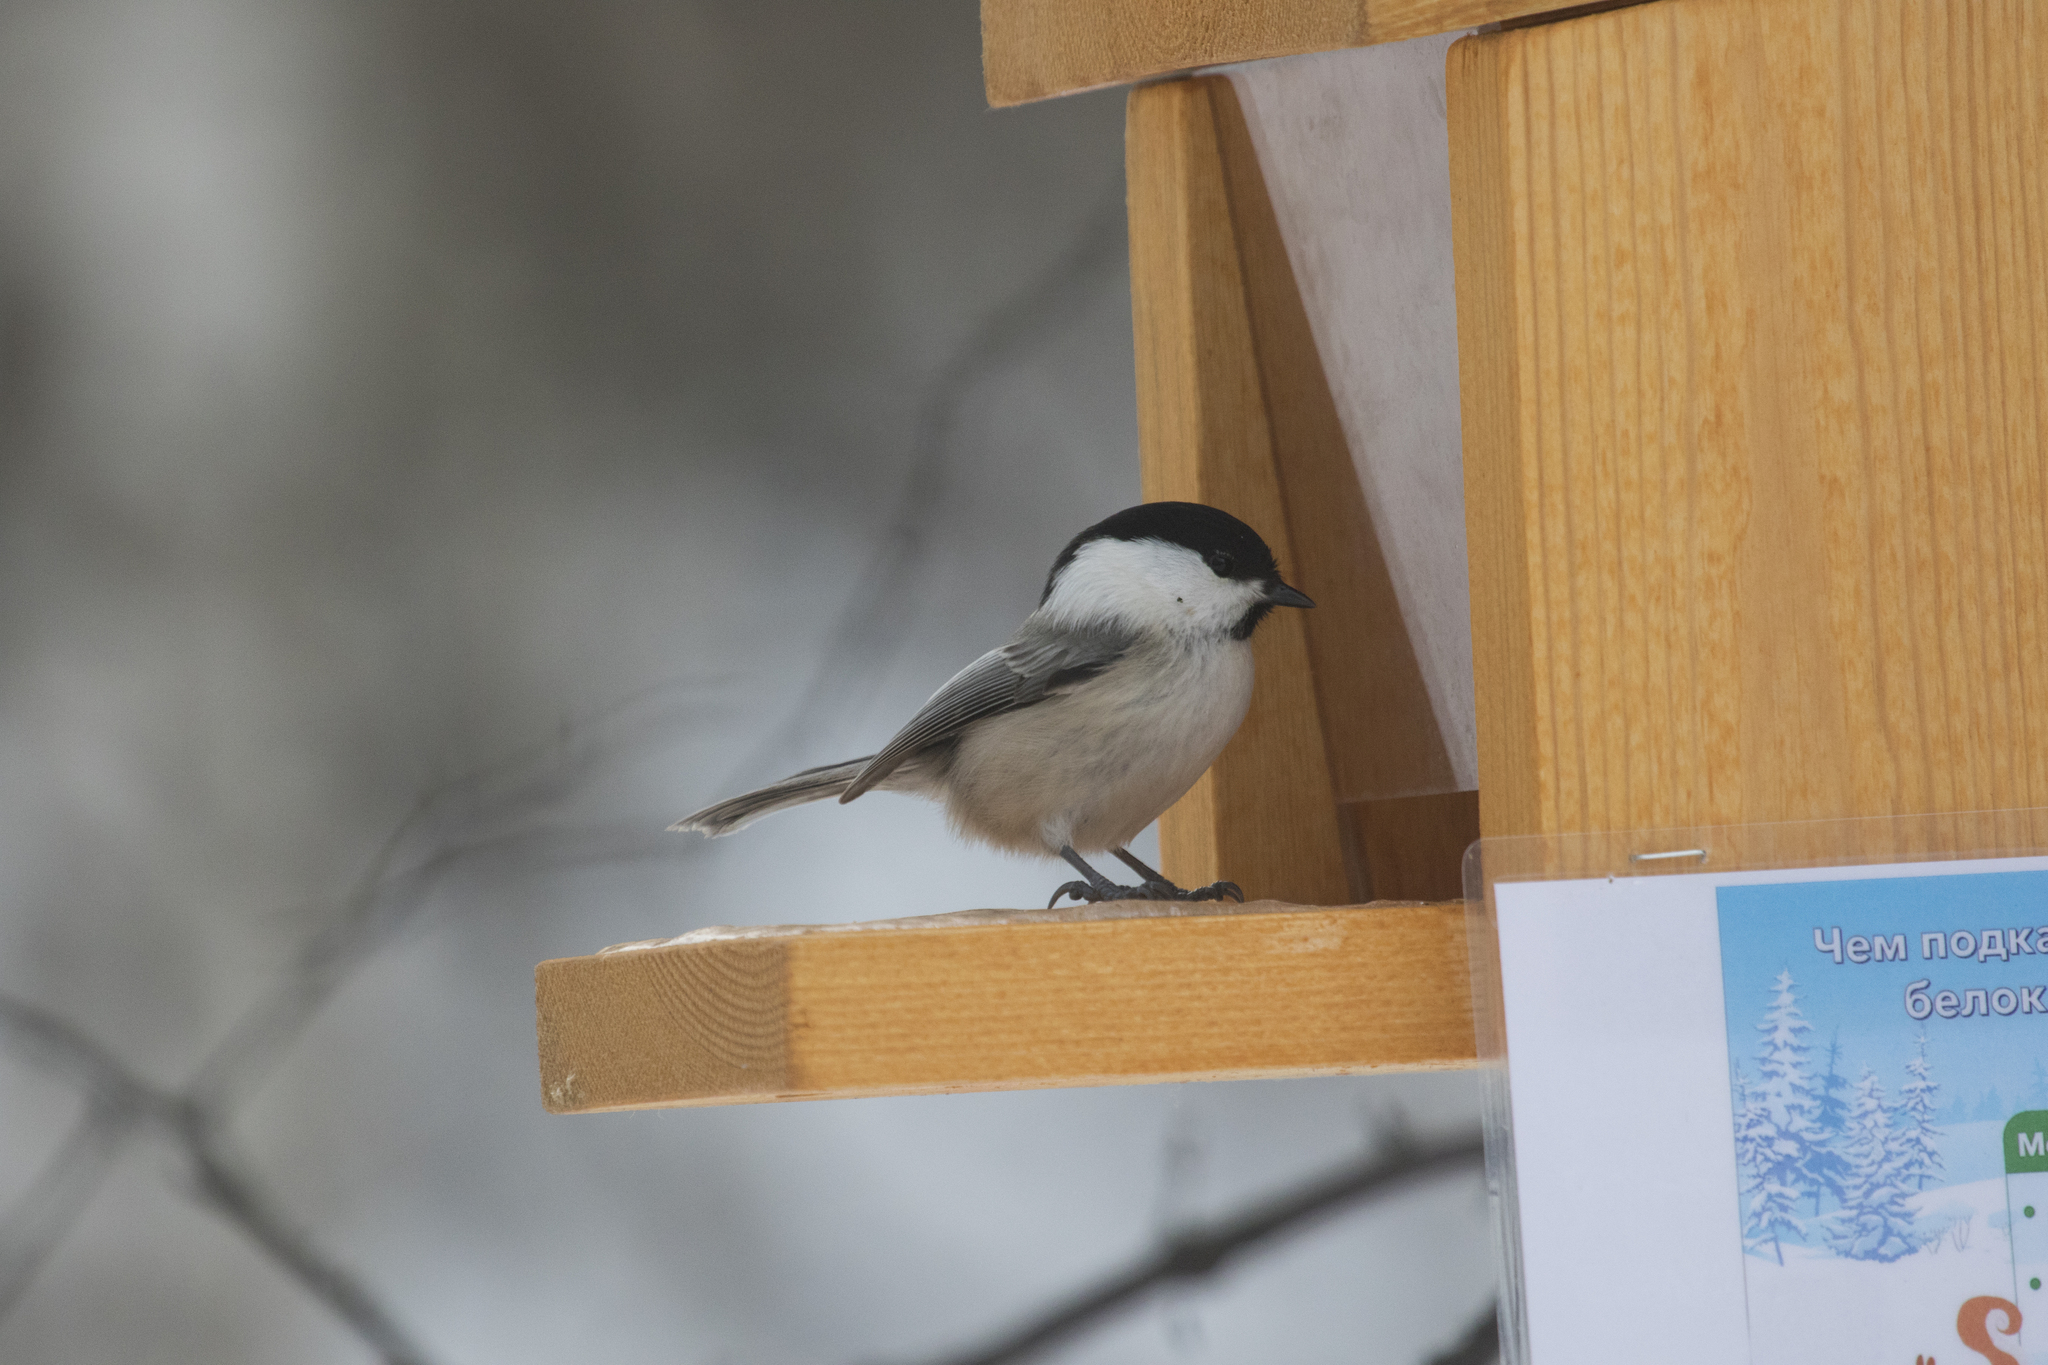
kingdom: Animalia
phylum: Chordata
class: Aves
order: Passeriformes
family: Paridae
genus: Poecile
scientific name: Poecile montanus
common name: Willow tit
